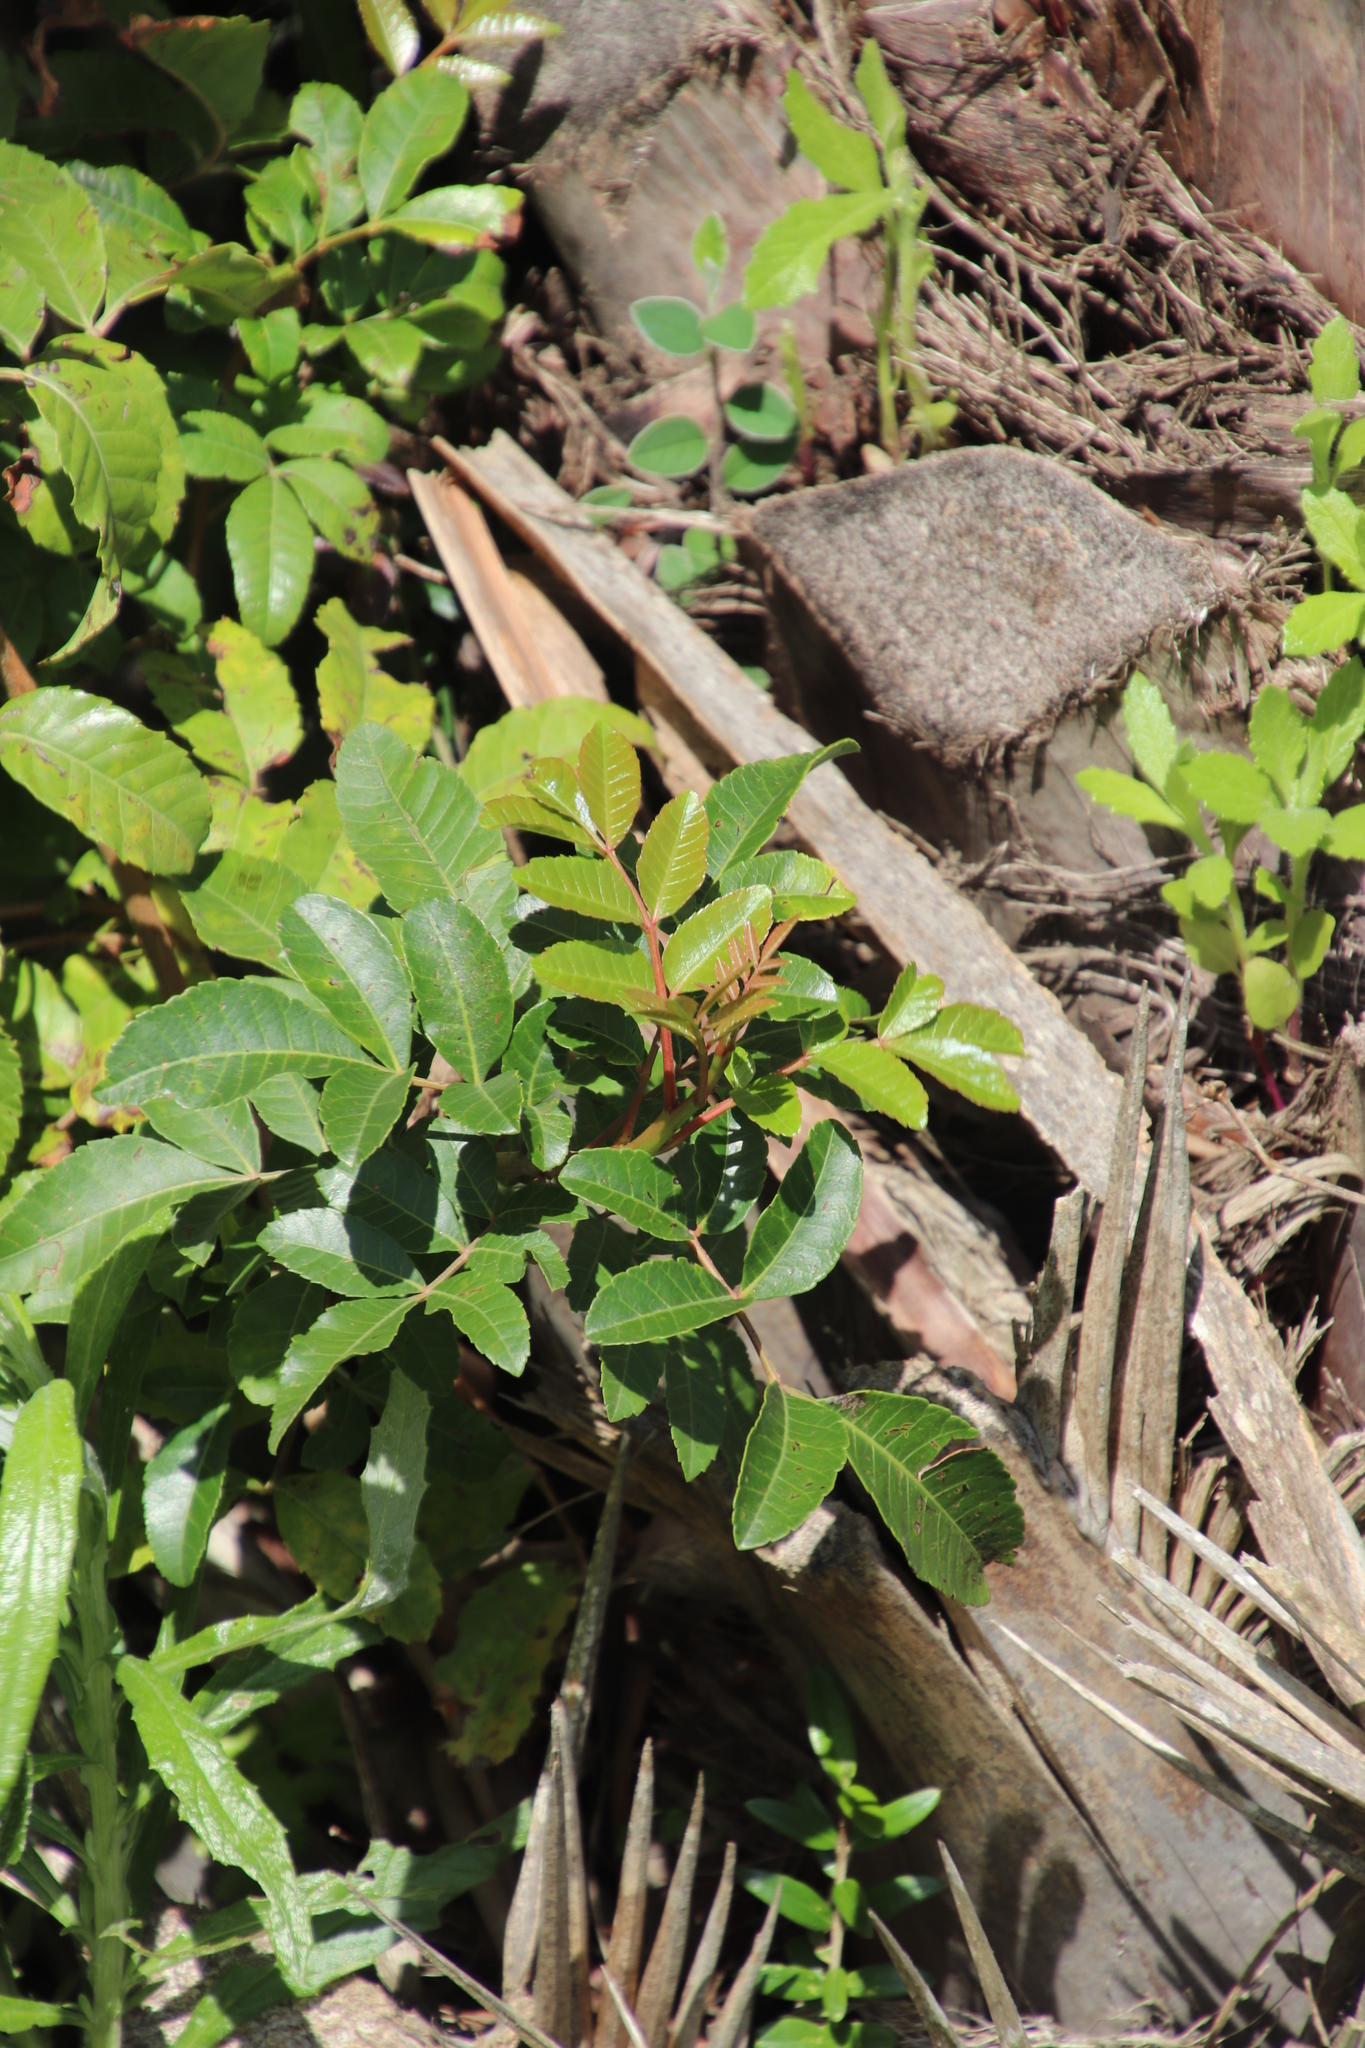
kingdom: Plantae
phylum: Tracheophyta
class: Magnoliopsida
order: Sapindales
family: Anacardiaceae
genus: Schinus
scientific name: Schinus terebinthifolia
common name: Brazilian peppertree
